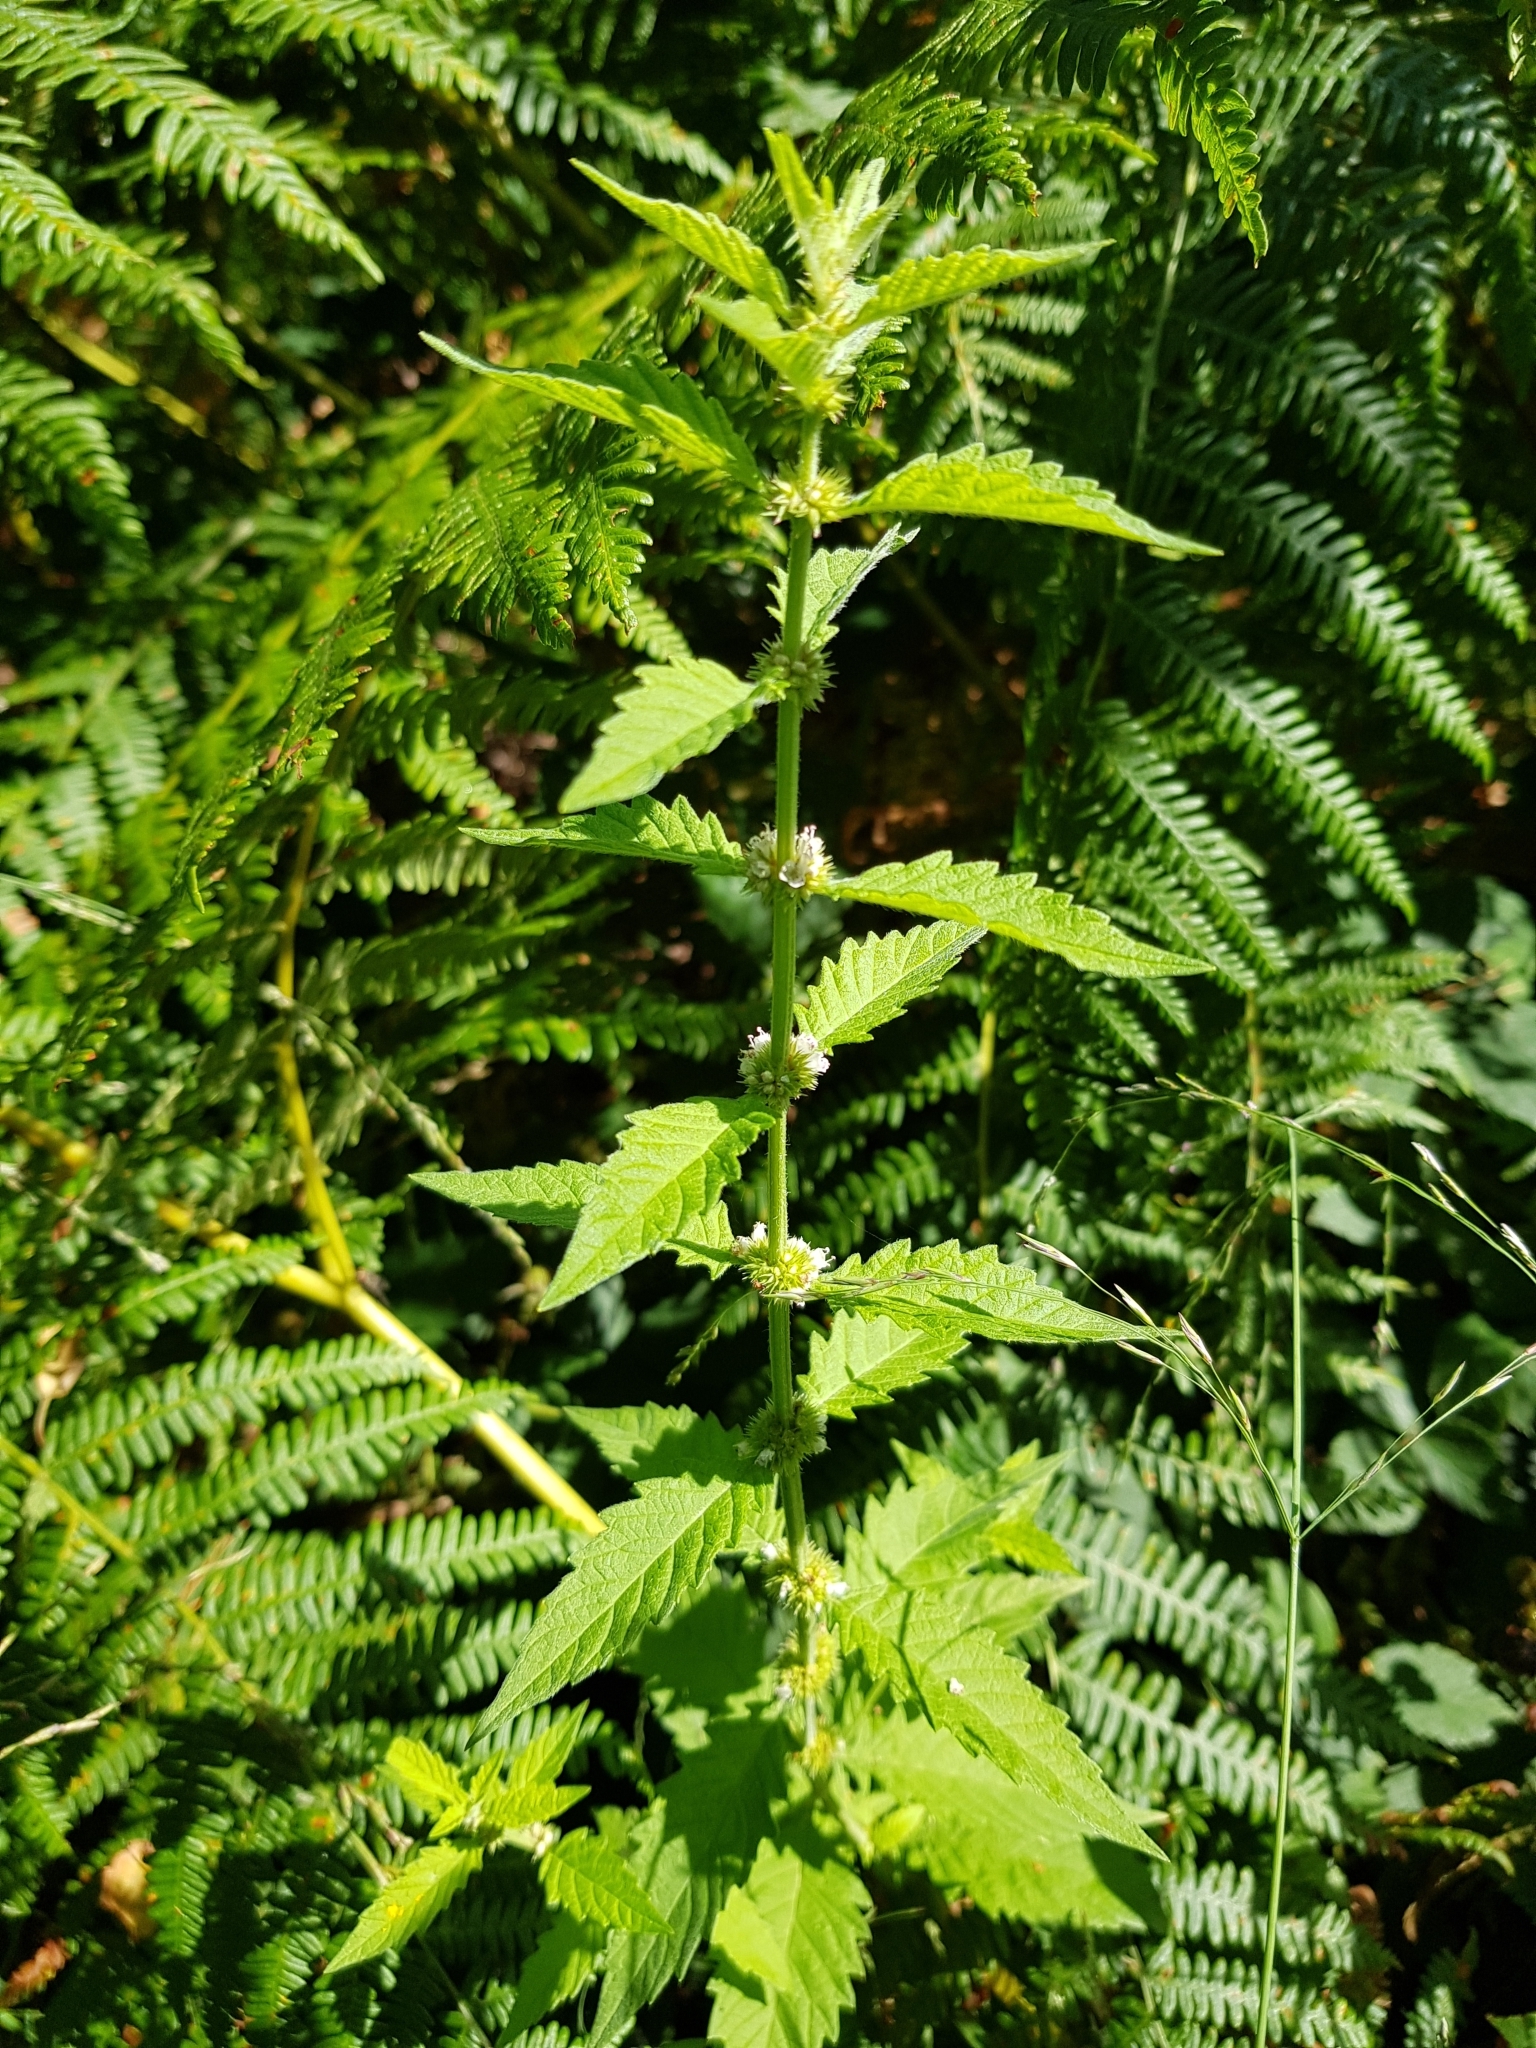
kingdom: Plantae
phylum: Tracheophyta
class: Magnoliopsida
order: Lamiales
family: Lamiaceae
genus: Lycopus
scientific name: Lycopus europaeus
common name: European bugleweed
